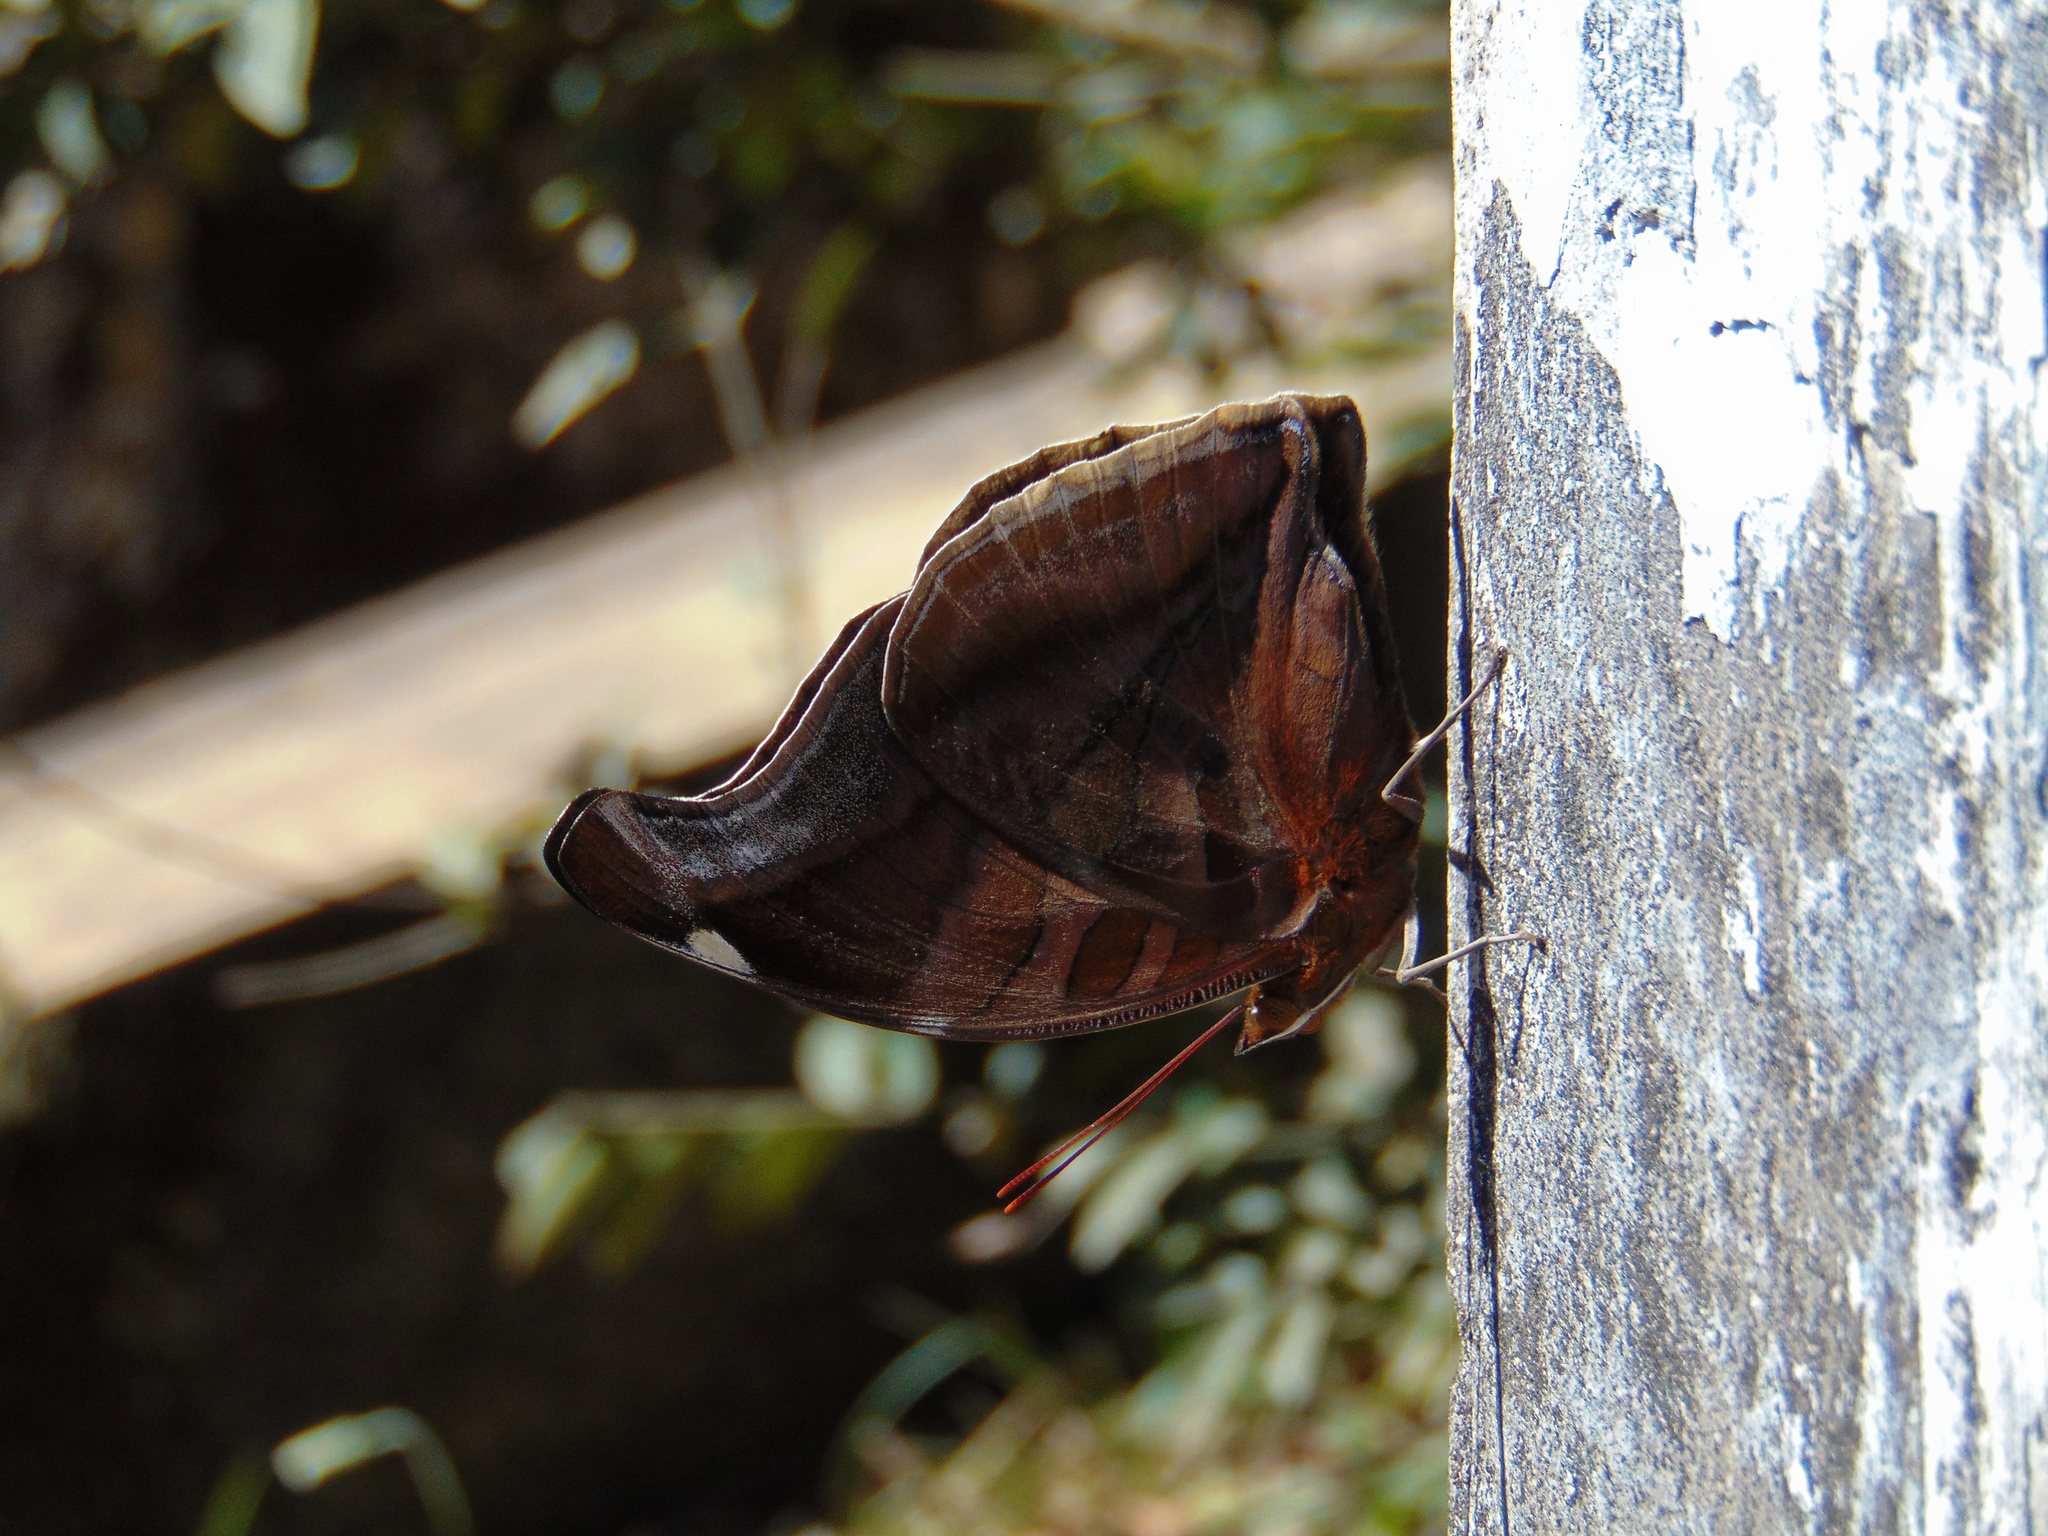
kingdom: Animalia
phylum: Arthropoda
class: Insecta
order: Lepidoptera
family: Nymphalidae
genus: Historis
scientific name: Historis odius
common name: Orion cecropian
